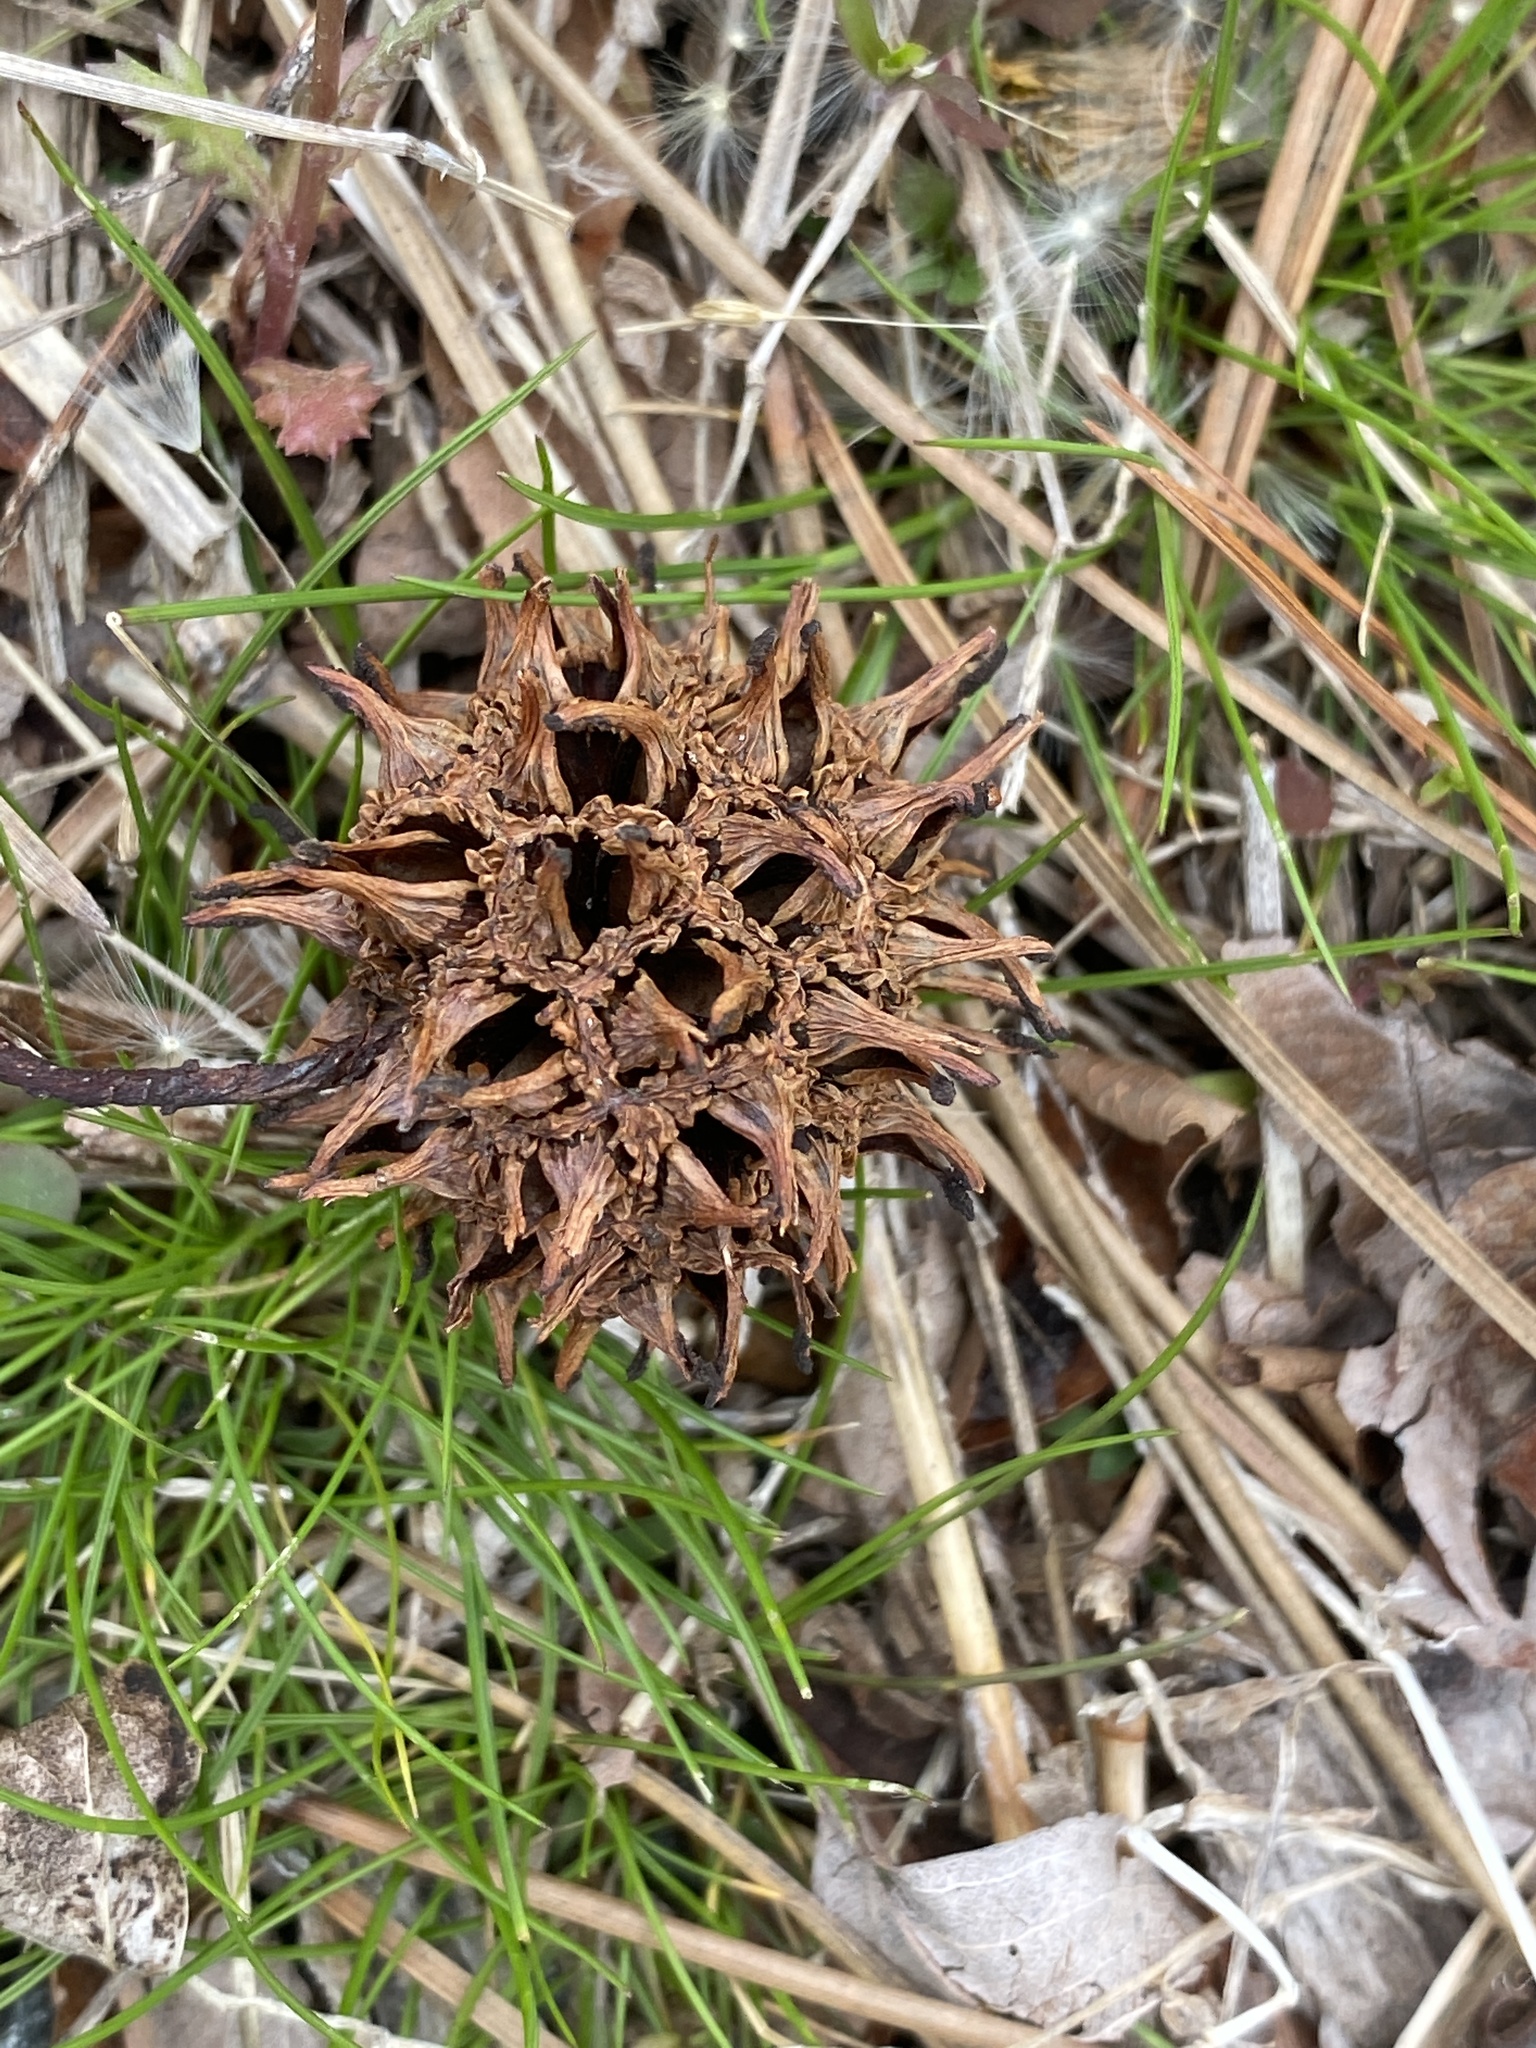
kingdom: Plantae
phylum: Tracheophyta
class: Magnoliopsida
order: Saxifragales
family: Altingiaceae
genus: Liquidambar
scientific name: Liquidambar styraciflua
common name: Sweet gum
